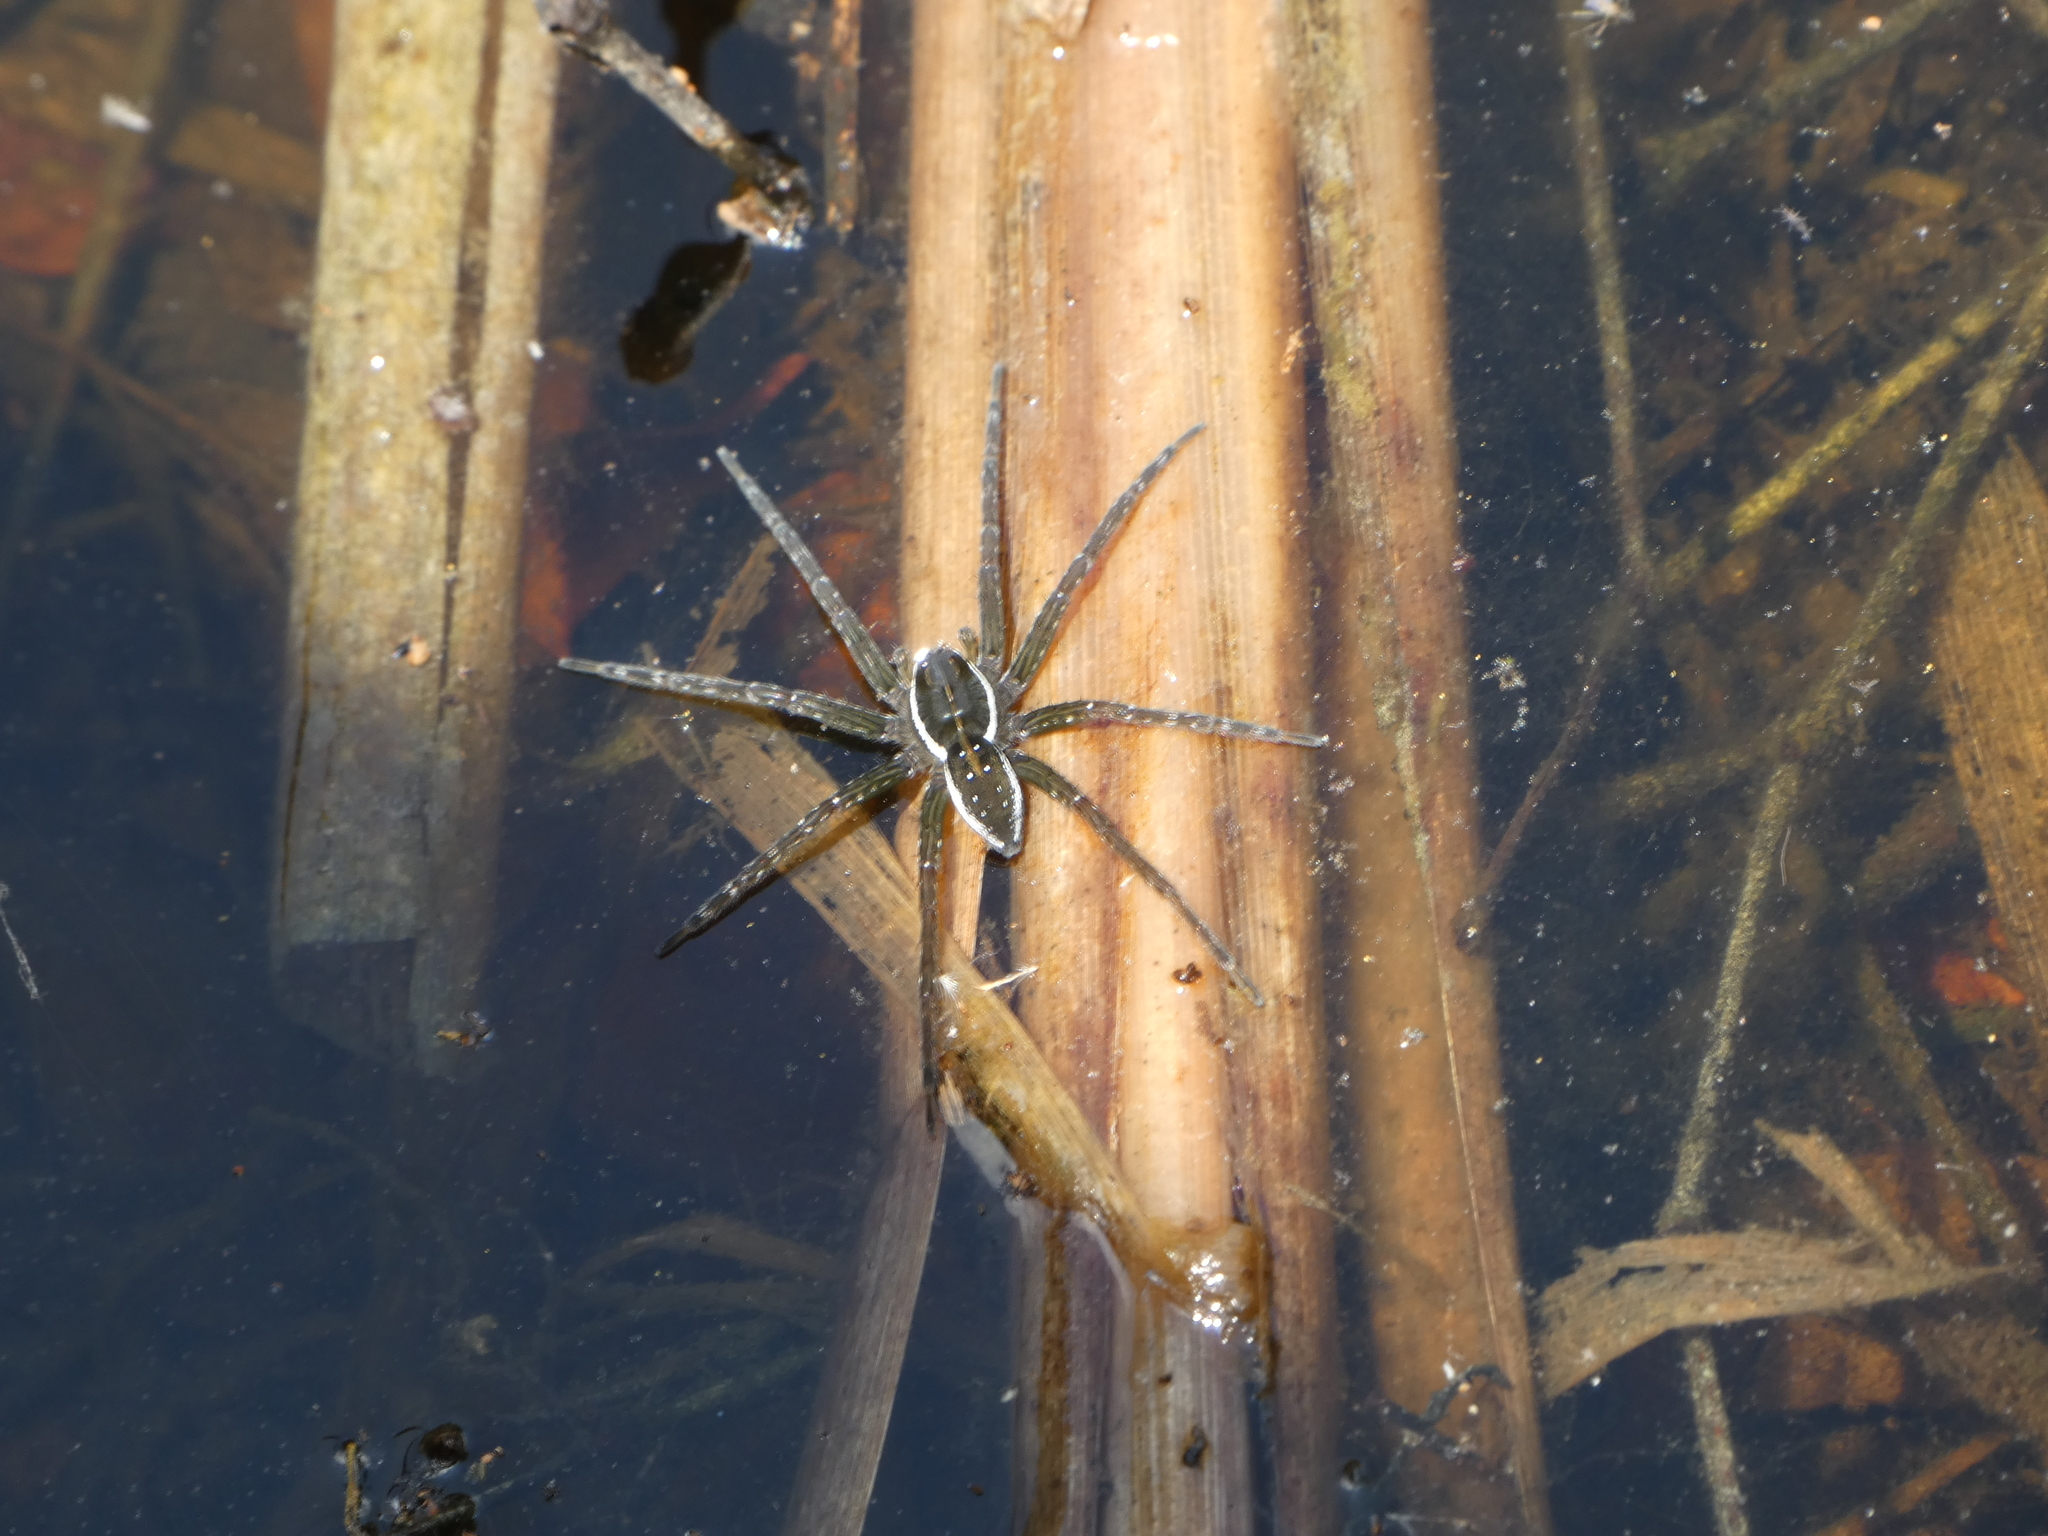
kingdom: Animalia
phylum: Arthropoda
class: Arachnida
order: Araneae
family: Pisauridae
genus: Dolomedes
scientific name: Dolomedes triton
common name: Six-spotted fishing spider
